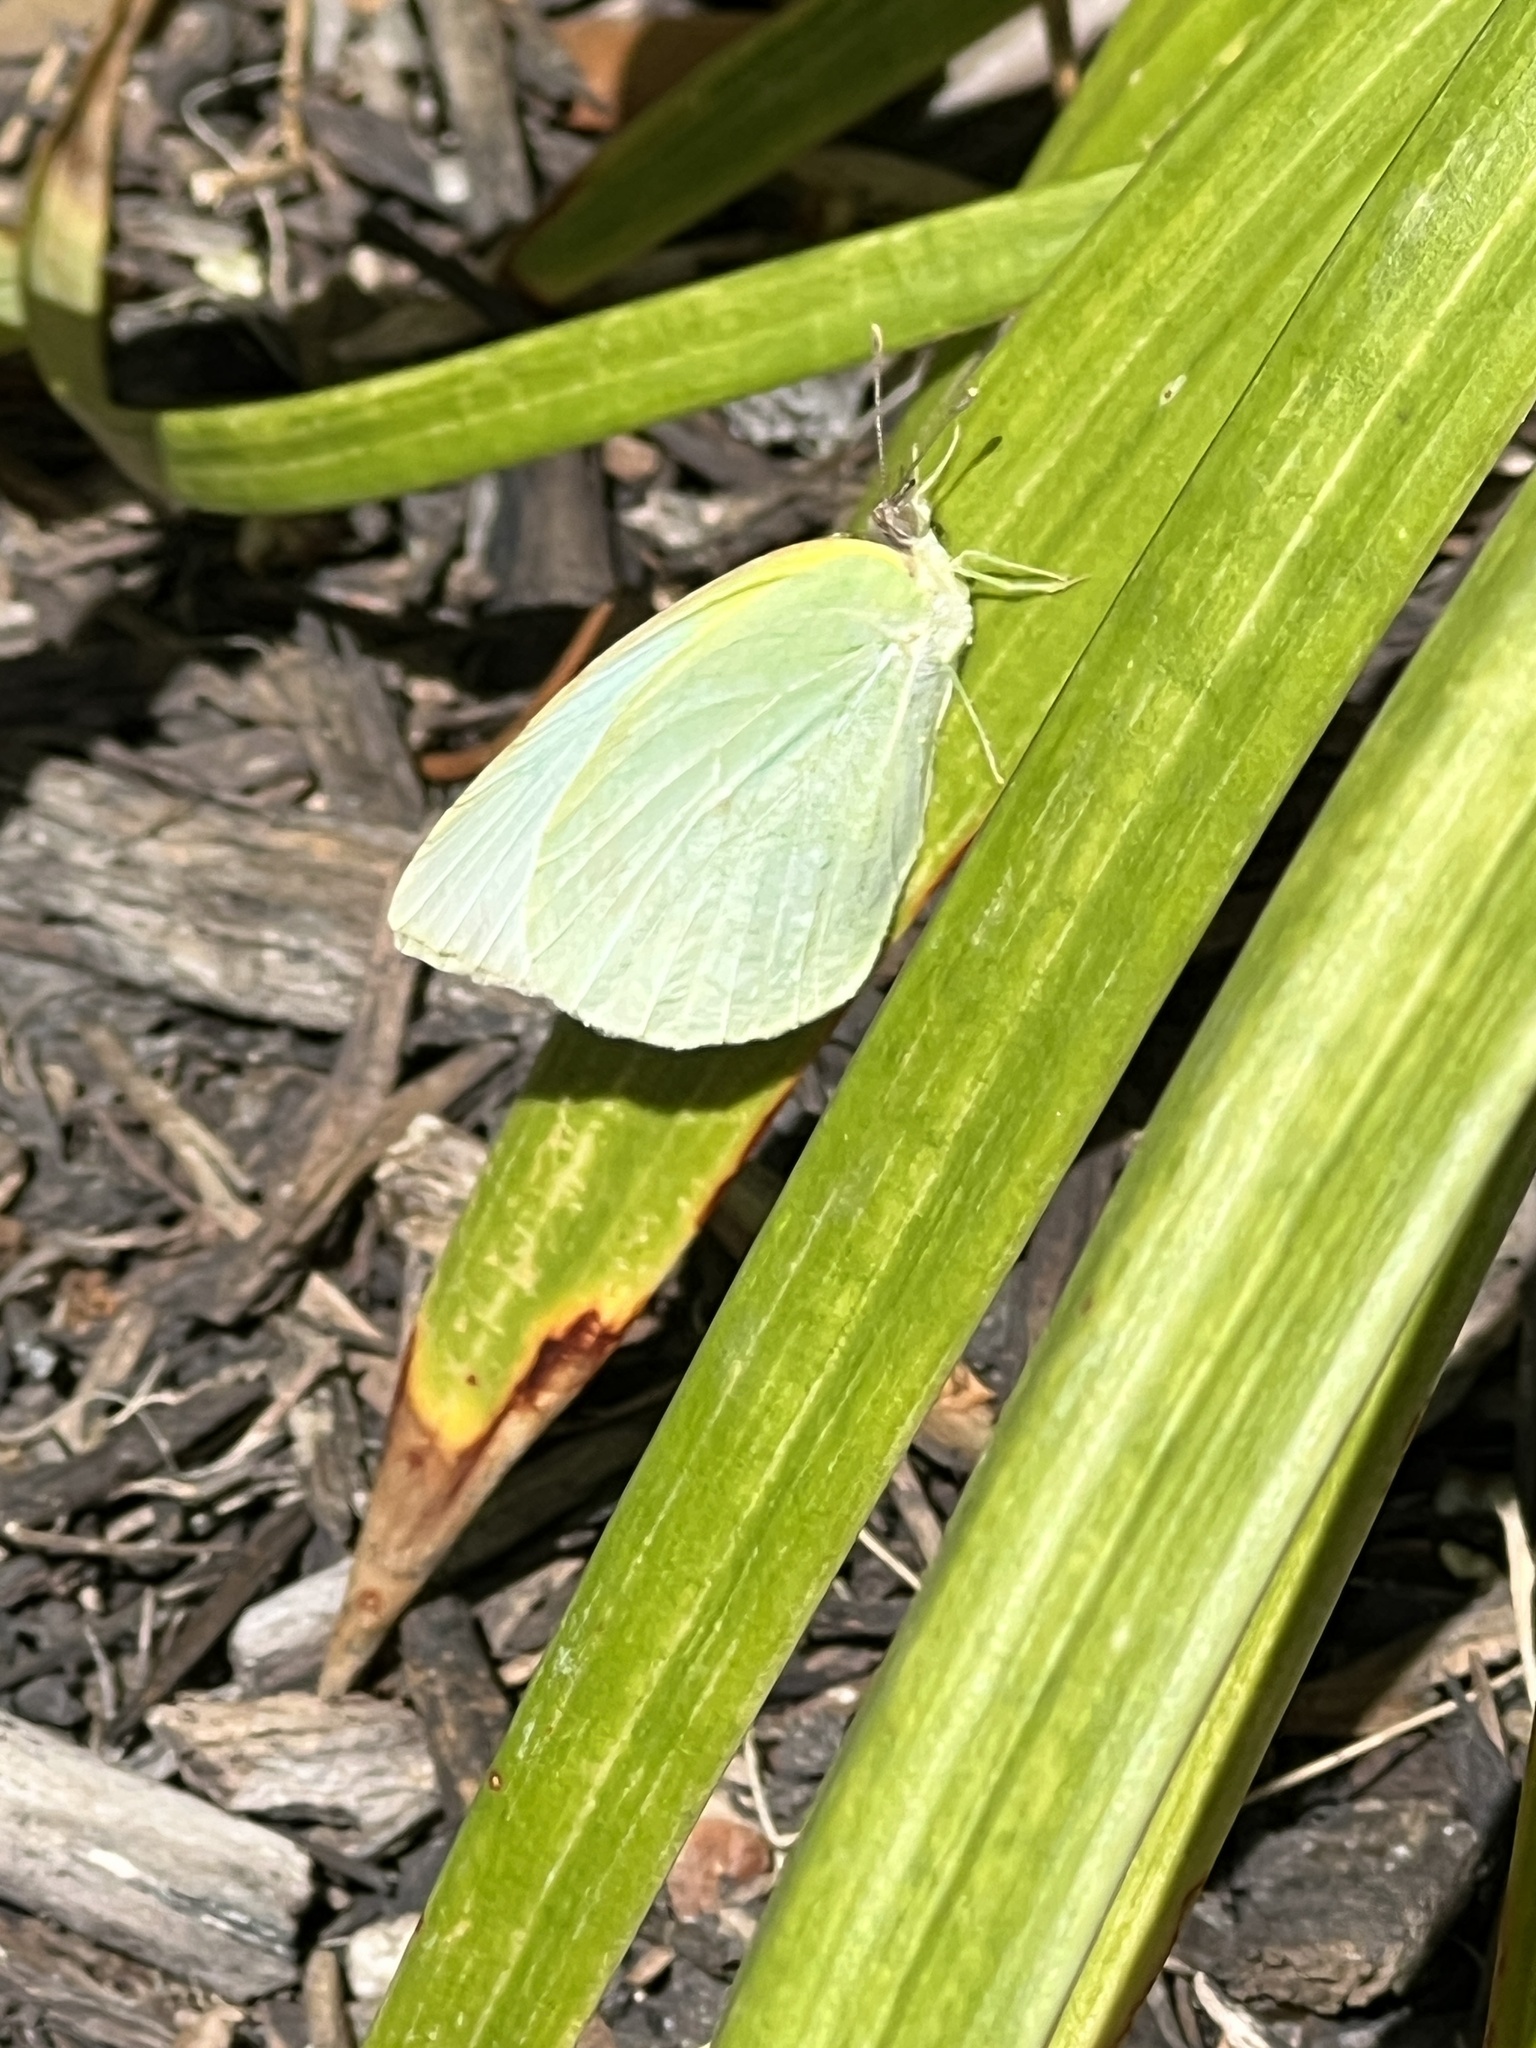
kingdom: Animalia
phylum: Arthropoda
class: Insecta
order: Lepidoptera
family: Pieridae
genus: Kricogonia
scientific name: Kricogonia lyside
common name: Guayacan sulphur,
